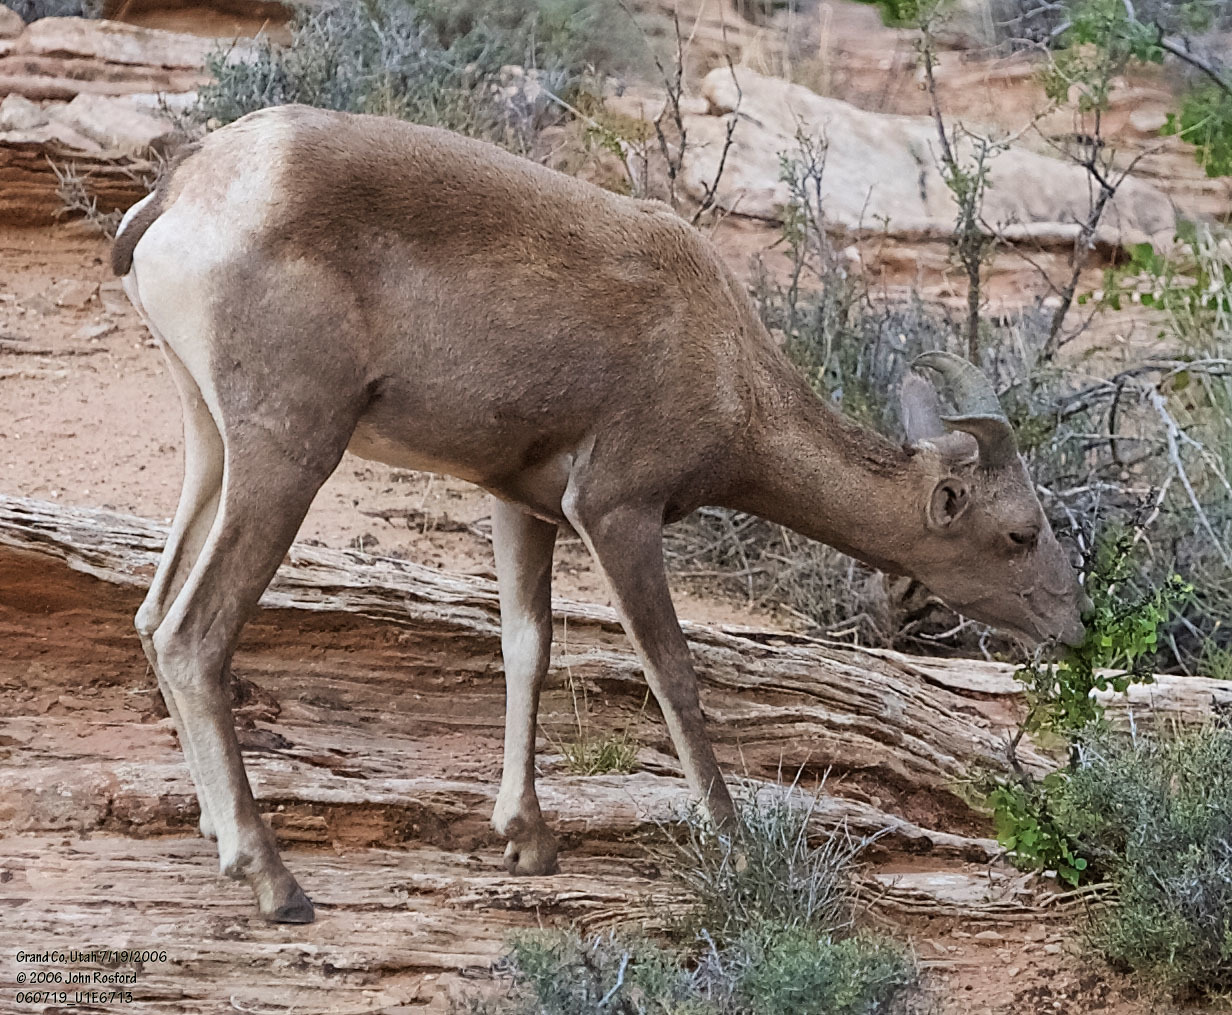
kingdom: Animalia
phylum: Chordata
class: Mammalia
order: Artiodactyla
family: Bovidae
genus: Ovis
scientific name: Ovis canadensis
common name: Bighorn sheep
